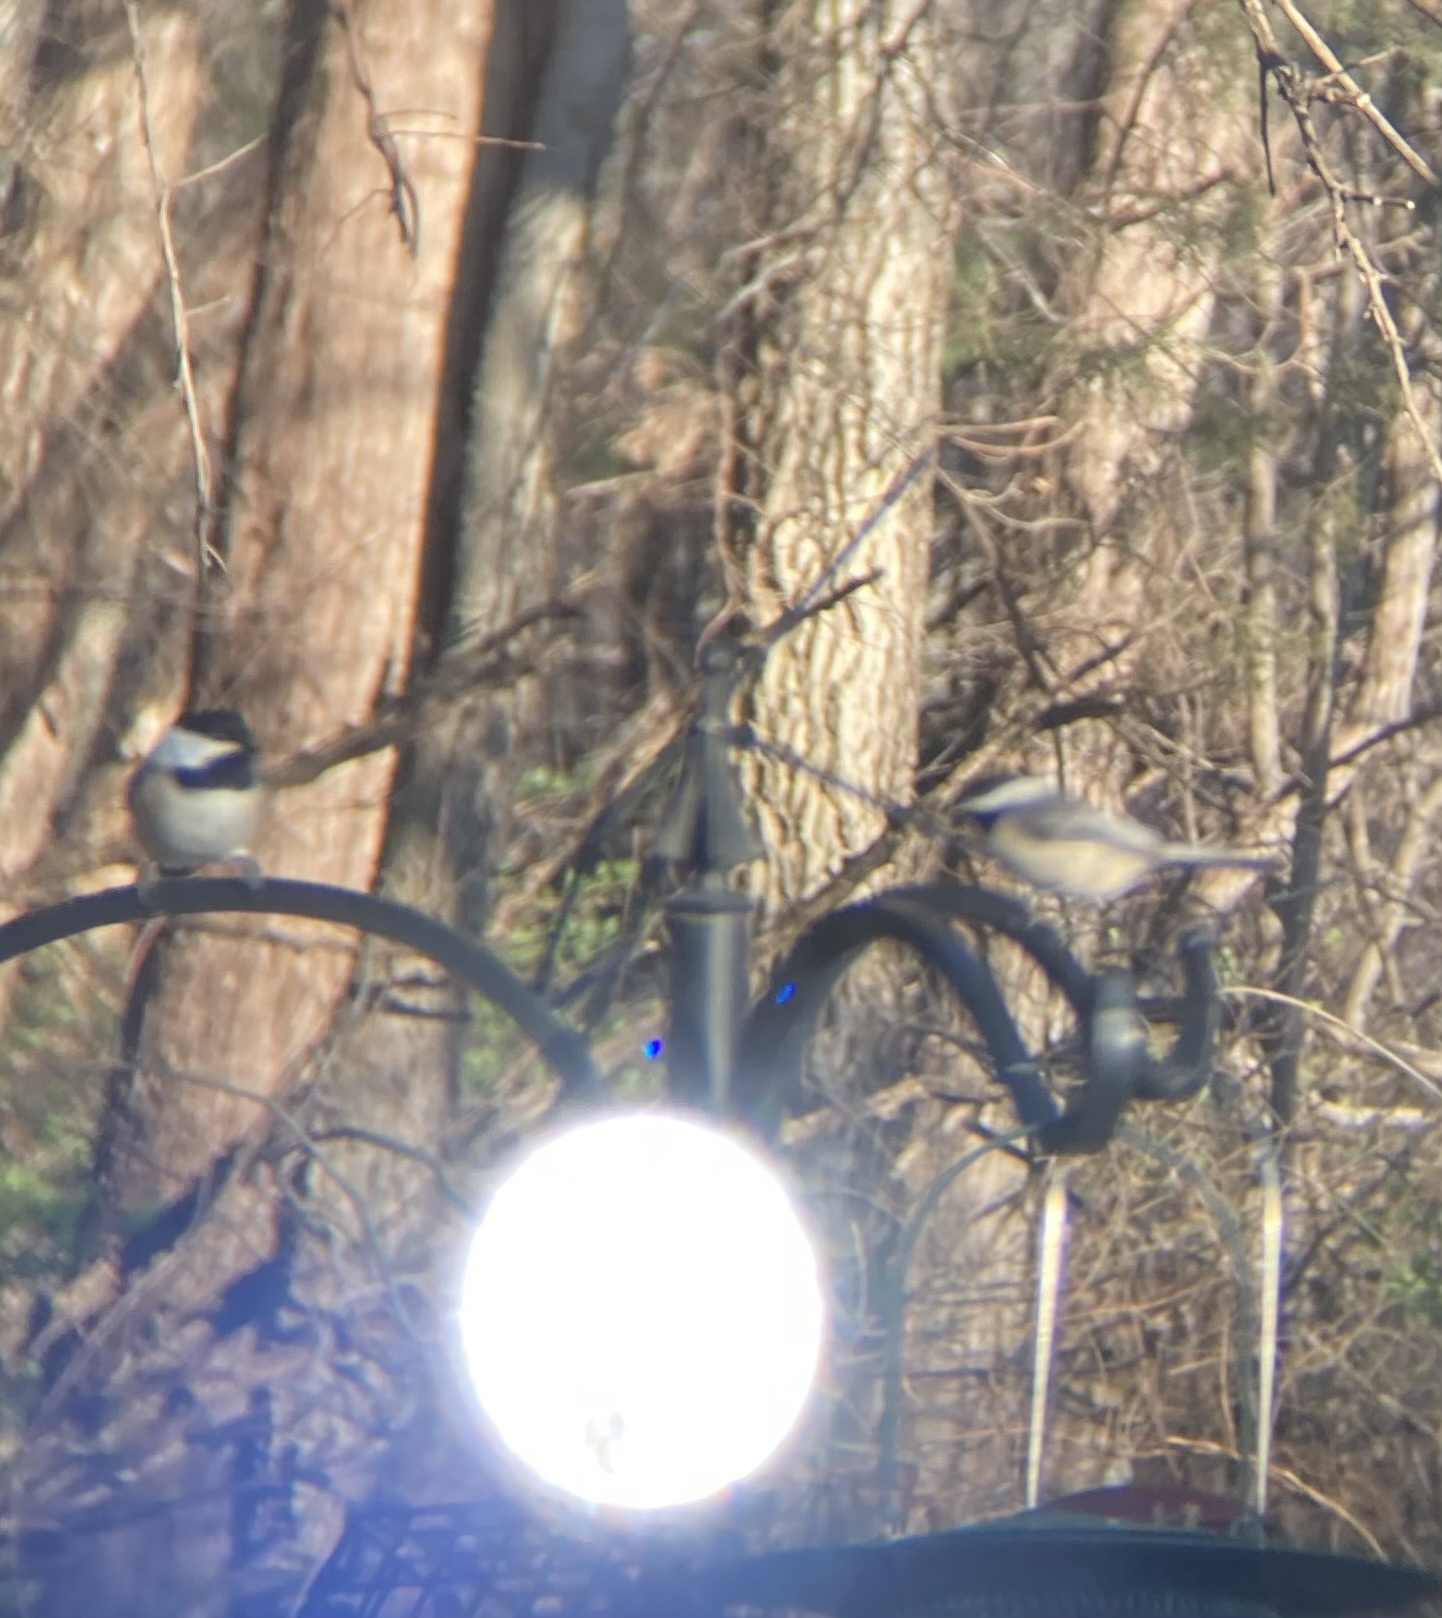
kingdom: Animalia
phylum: Chordata
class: Aves
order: Passeriformes
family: Paridae
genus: Poecile
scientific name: Poecile atricapillus
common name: Black-capped chickadee
